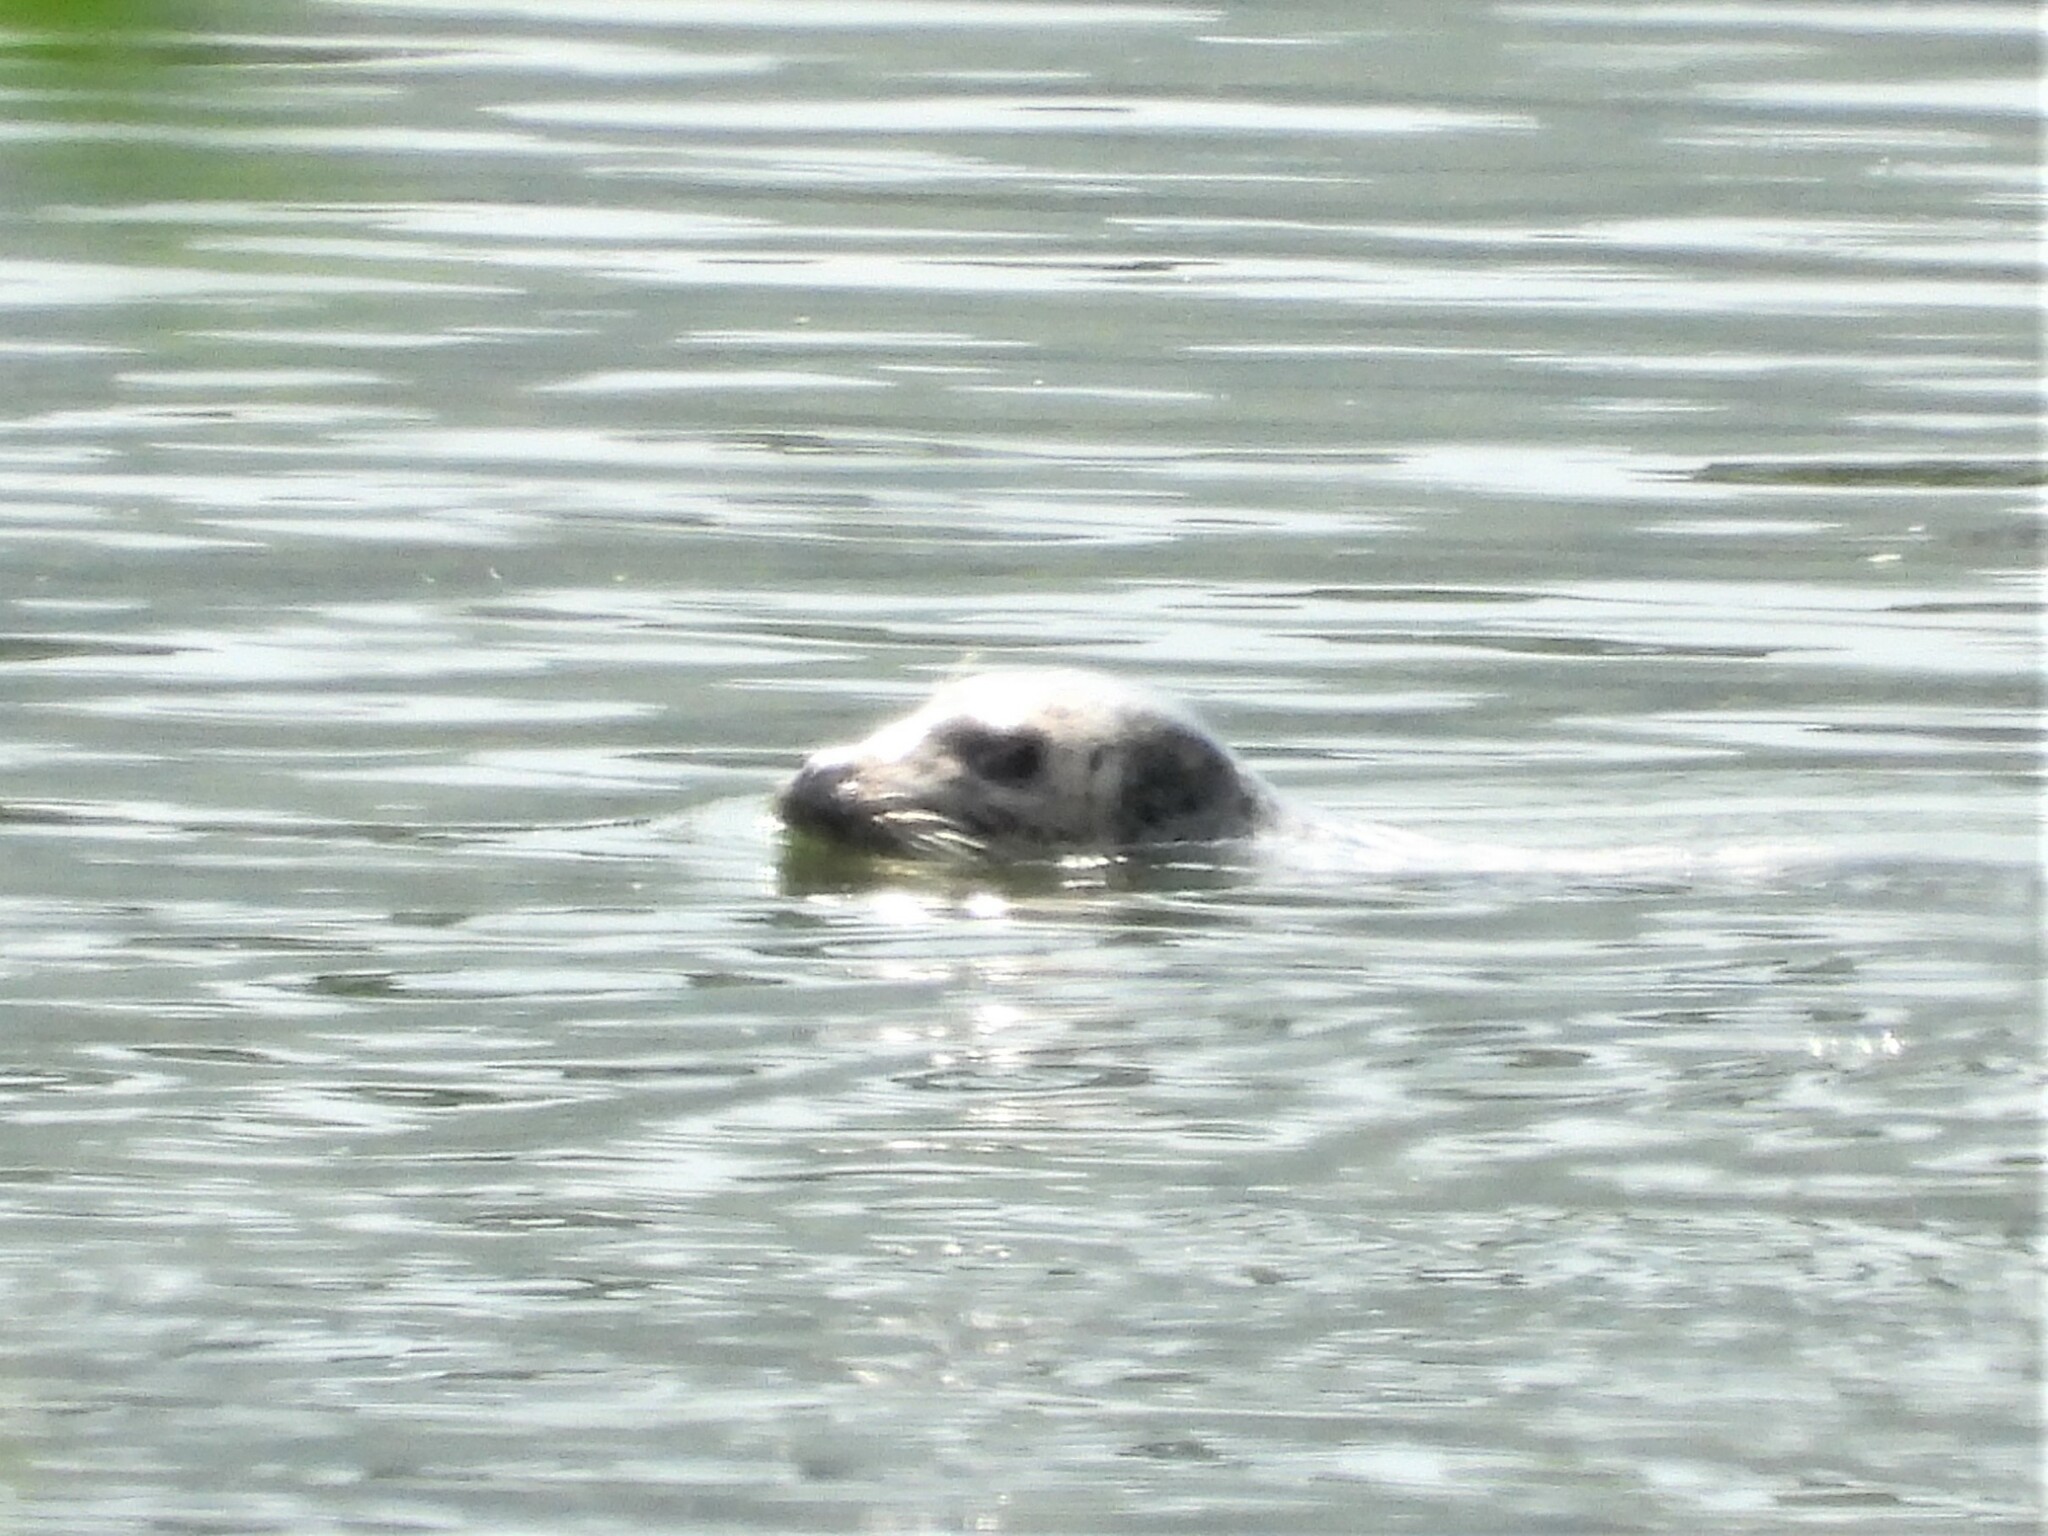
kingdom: Animalia
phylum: Chordata
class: Mammalia
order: Carnivora
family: Phocidae
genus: Phoca
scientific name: Phoca vitulina
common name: Harbor seal
